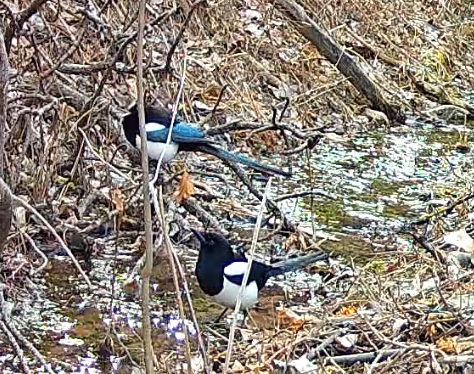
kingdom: Animalia
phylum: Chordata
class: Aves
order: Passeriformes
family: Corvidae
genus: Pica
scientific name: Pica hudsonia
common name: Black-billed magpie
